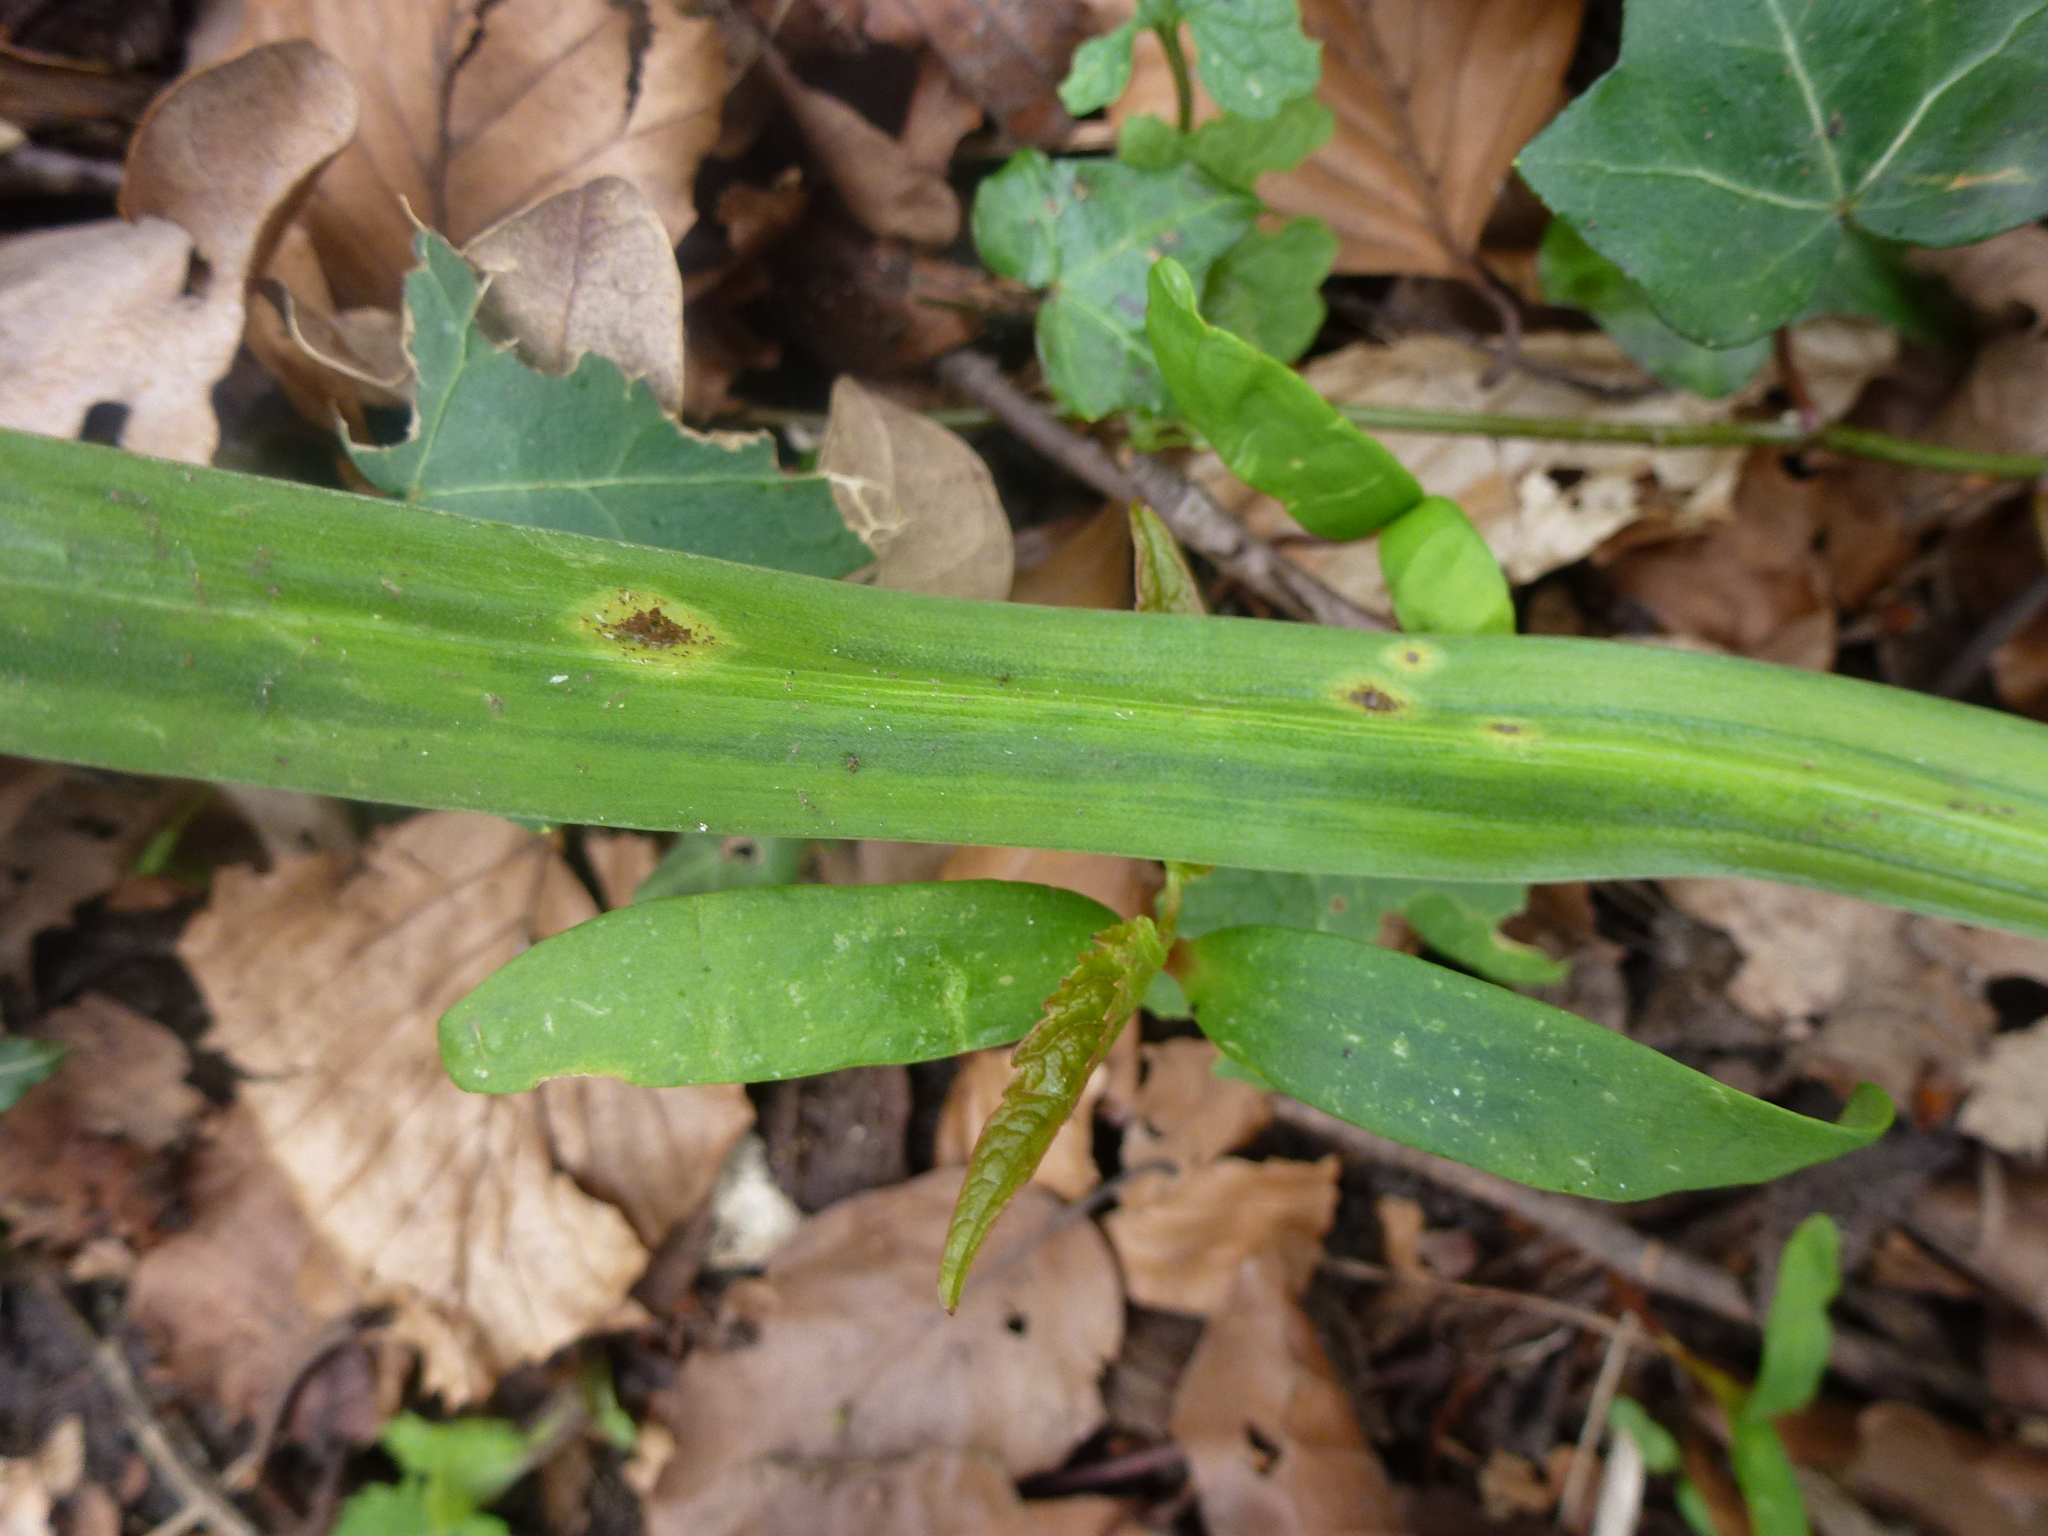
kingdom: Fungi
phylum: Basidiomycota
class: Pucciniomycetes
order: Pucciniales
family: Pucciniaceae
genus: Uromyces
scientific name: Uromyces hyacinthi
